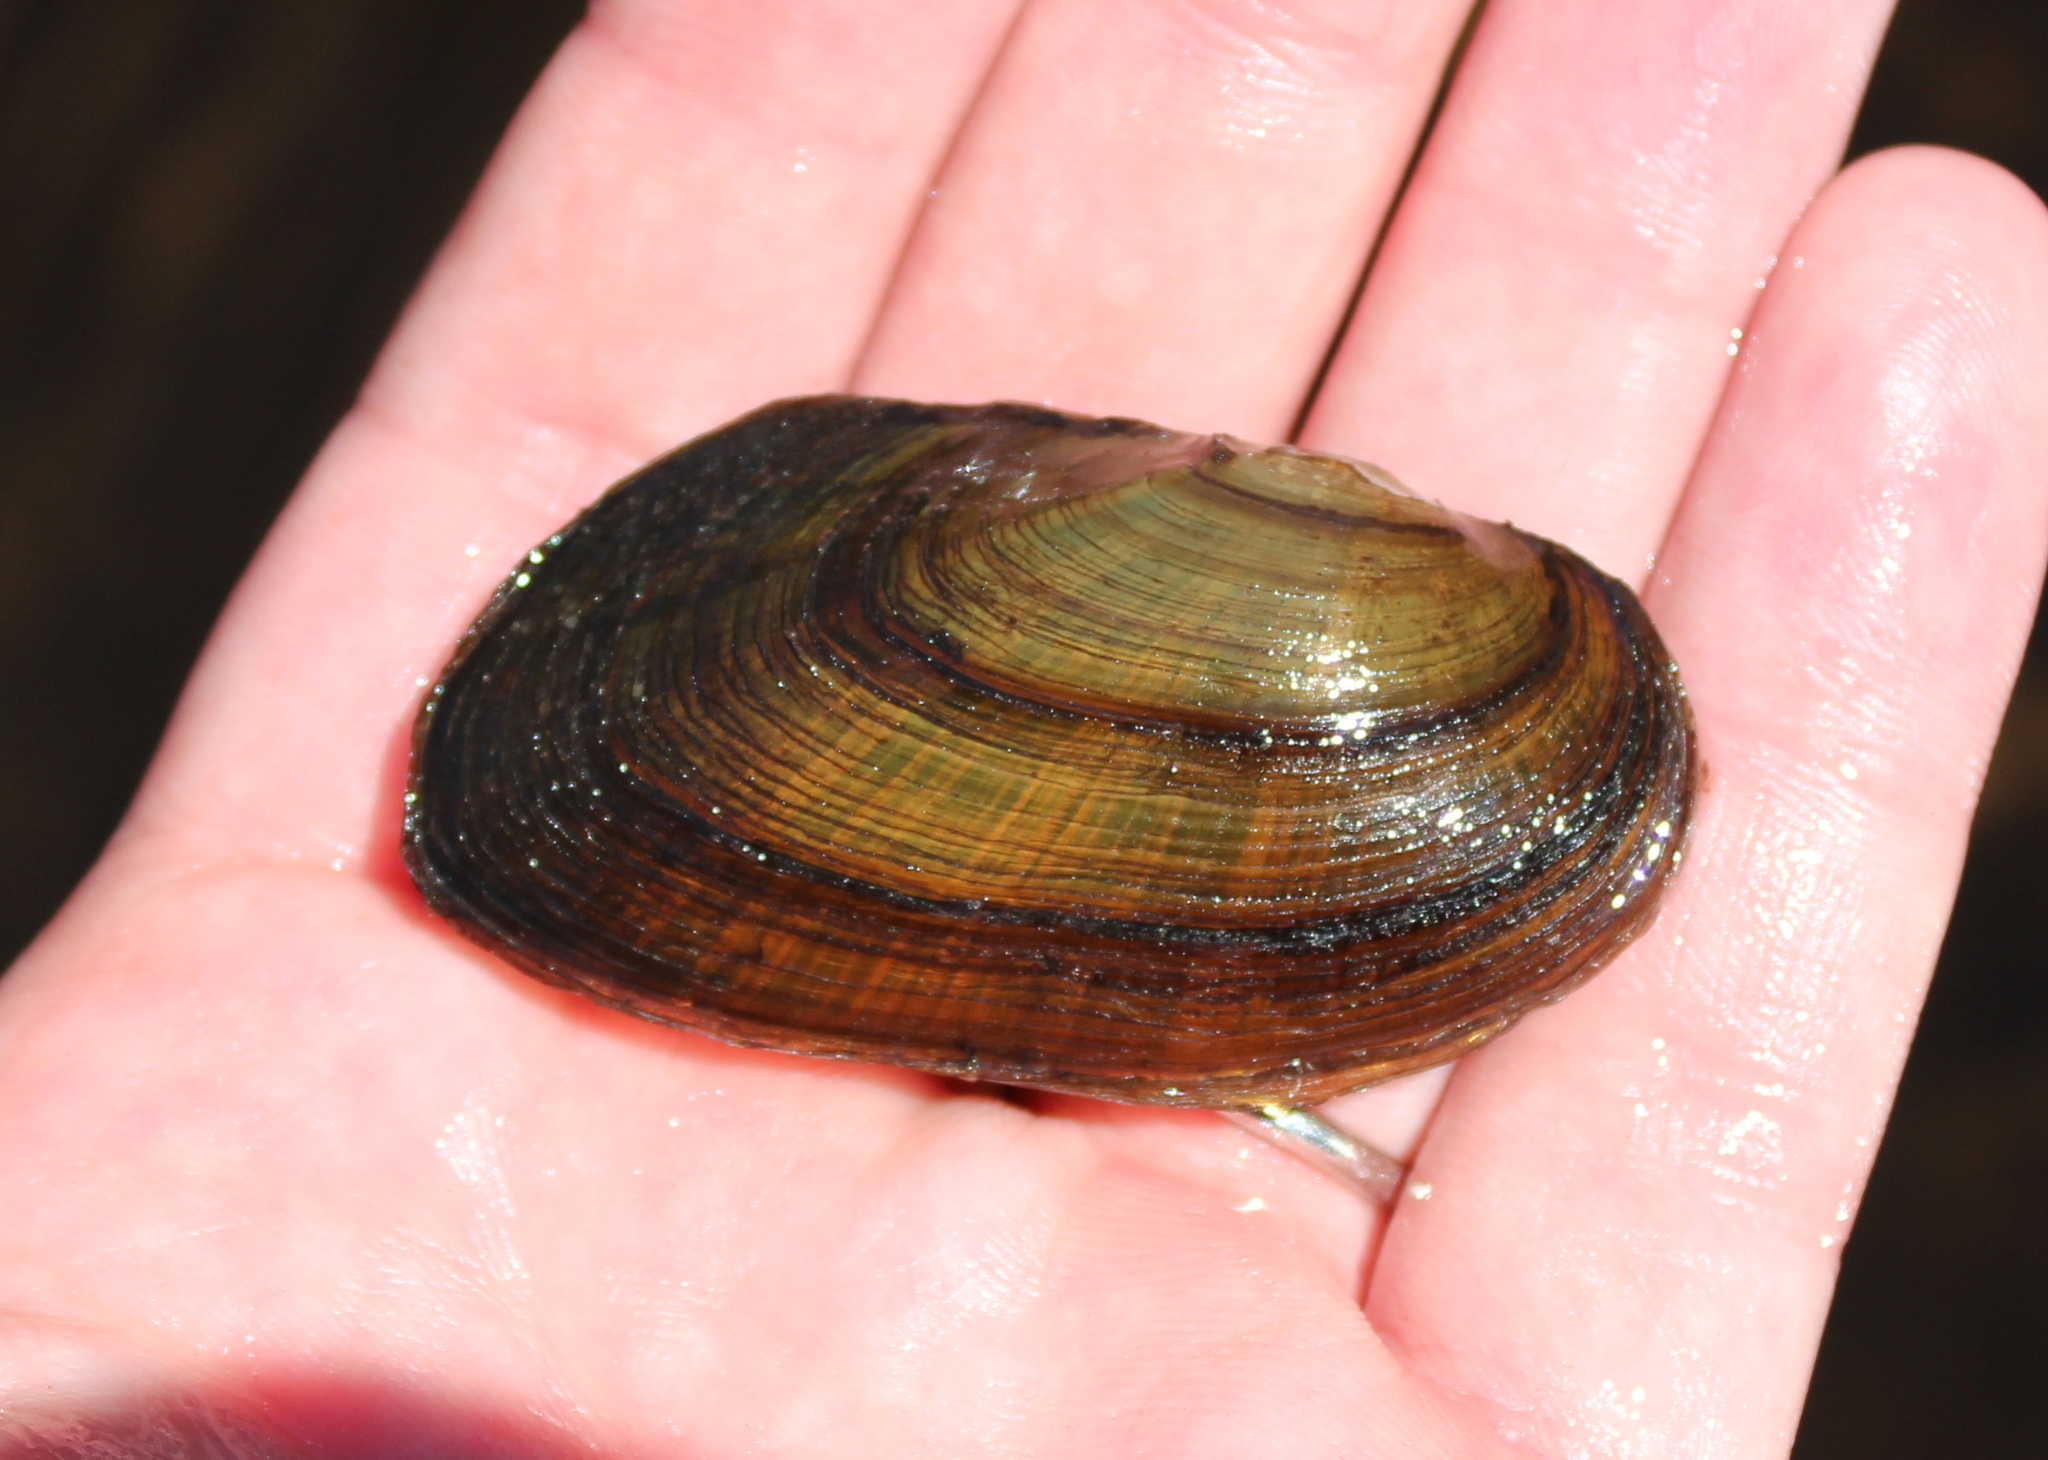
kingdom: Animalia
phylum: Mollusca
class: Bivalvia
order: Unionida
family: Unionidae
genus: Elliptio
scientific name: Elliptio complanata
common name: Eastern elliptio
